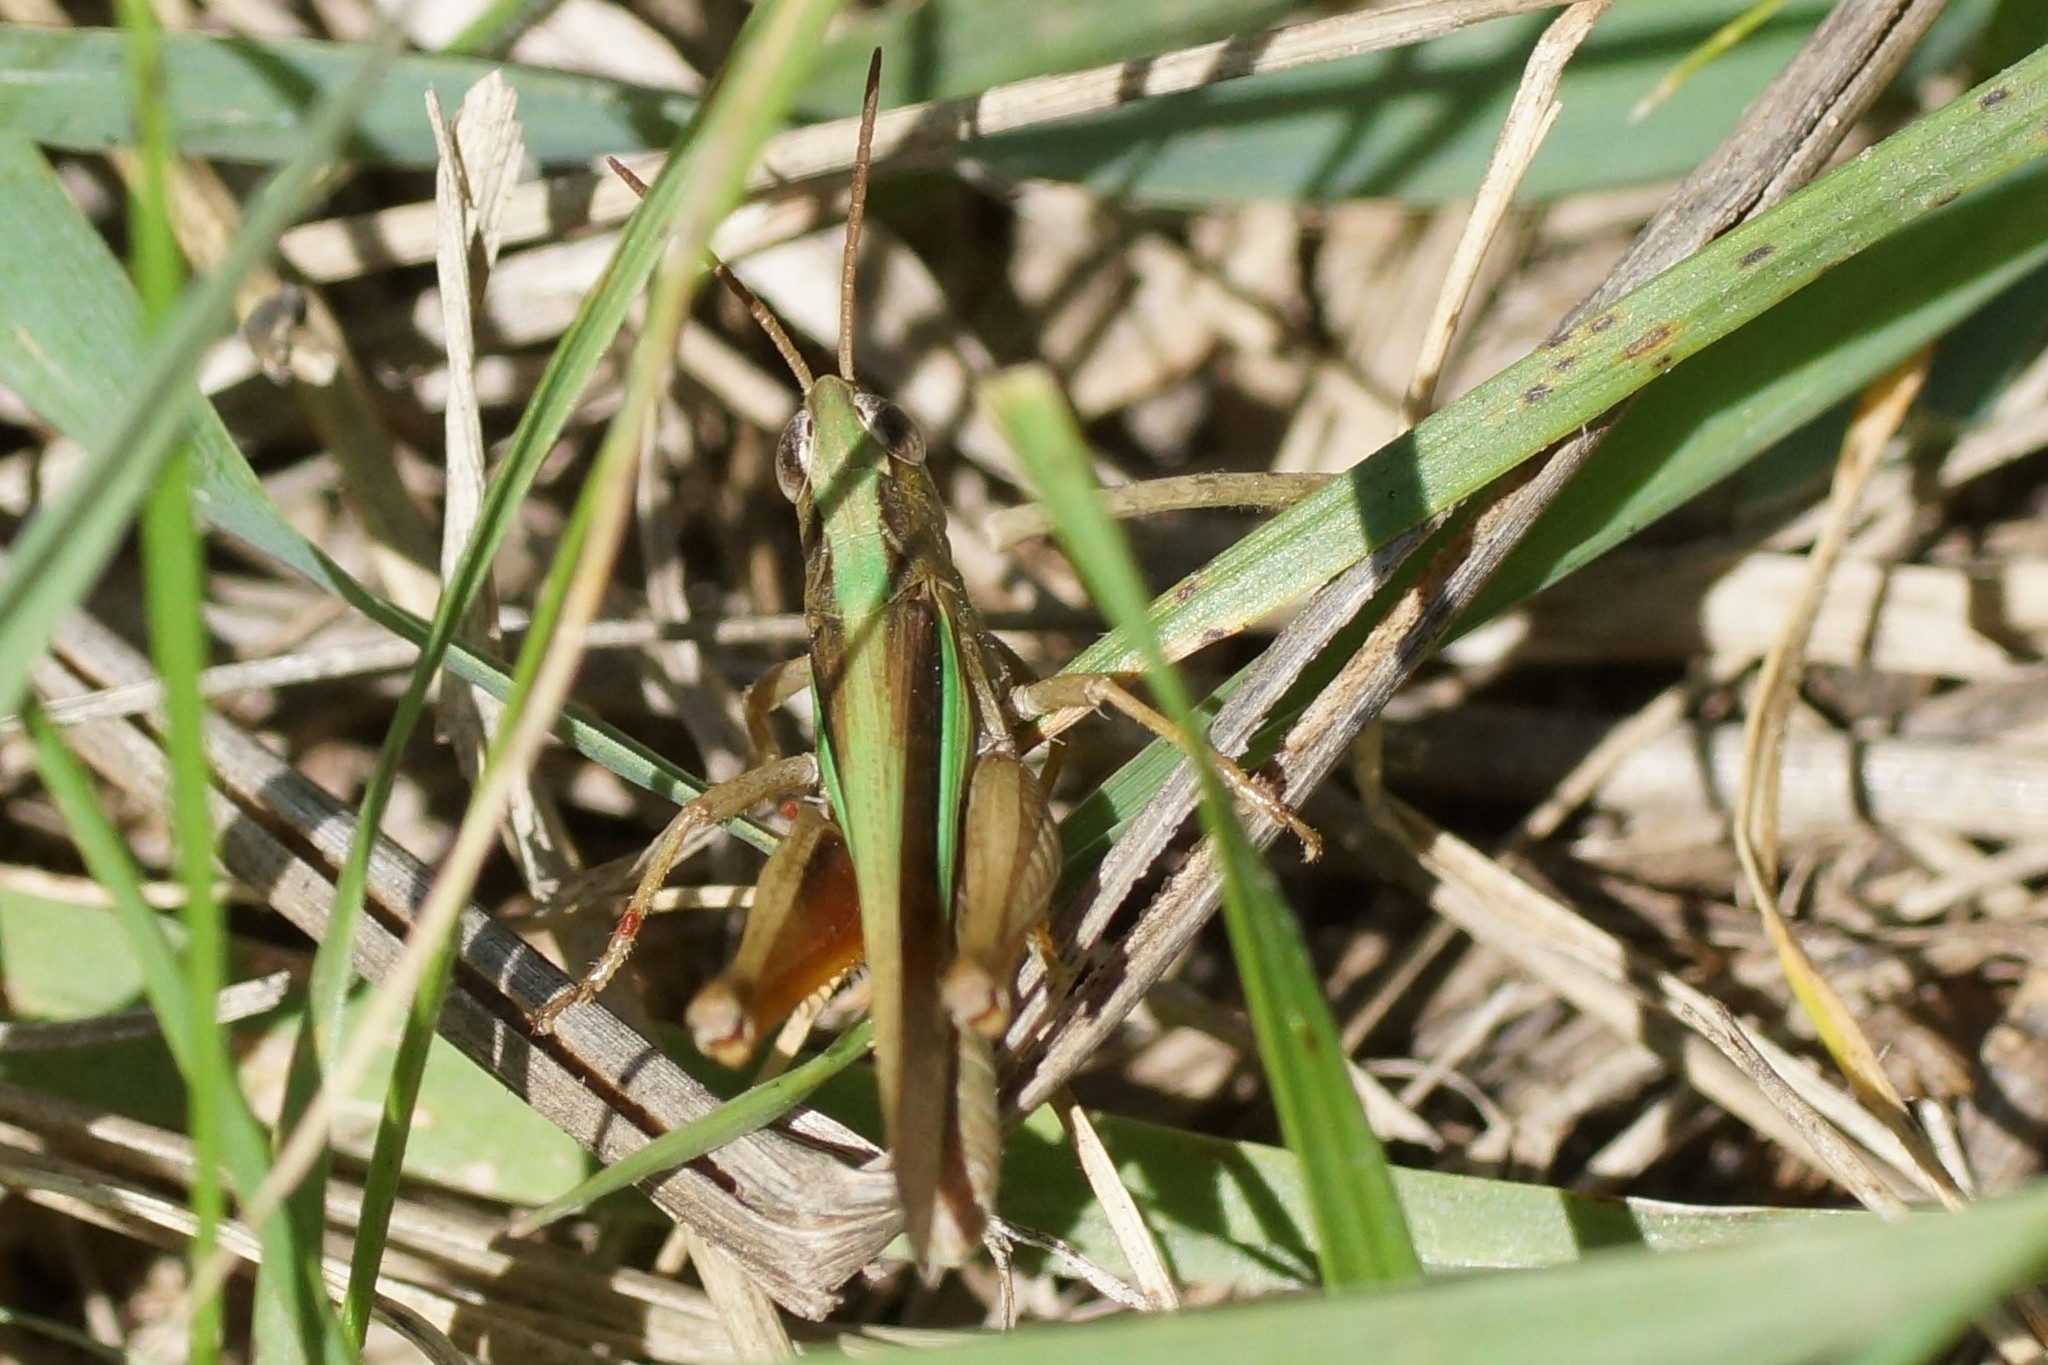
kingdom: Animalia
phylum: Arthropoda
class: Insecta
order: Orthoptera
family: Acrididae
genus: Schizobothrus
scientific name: Schizobothrus flavovittatus
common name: Disappearing grasshopper
